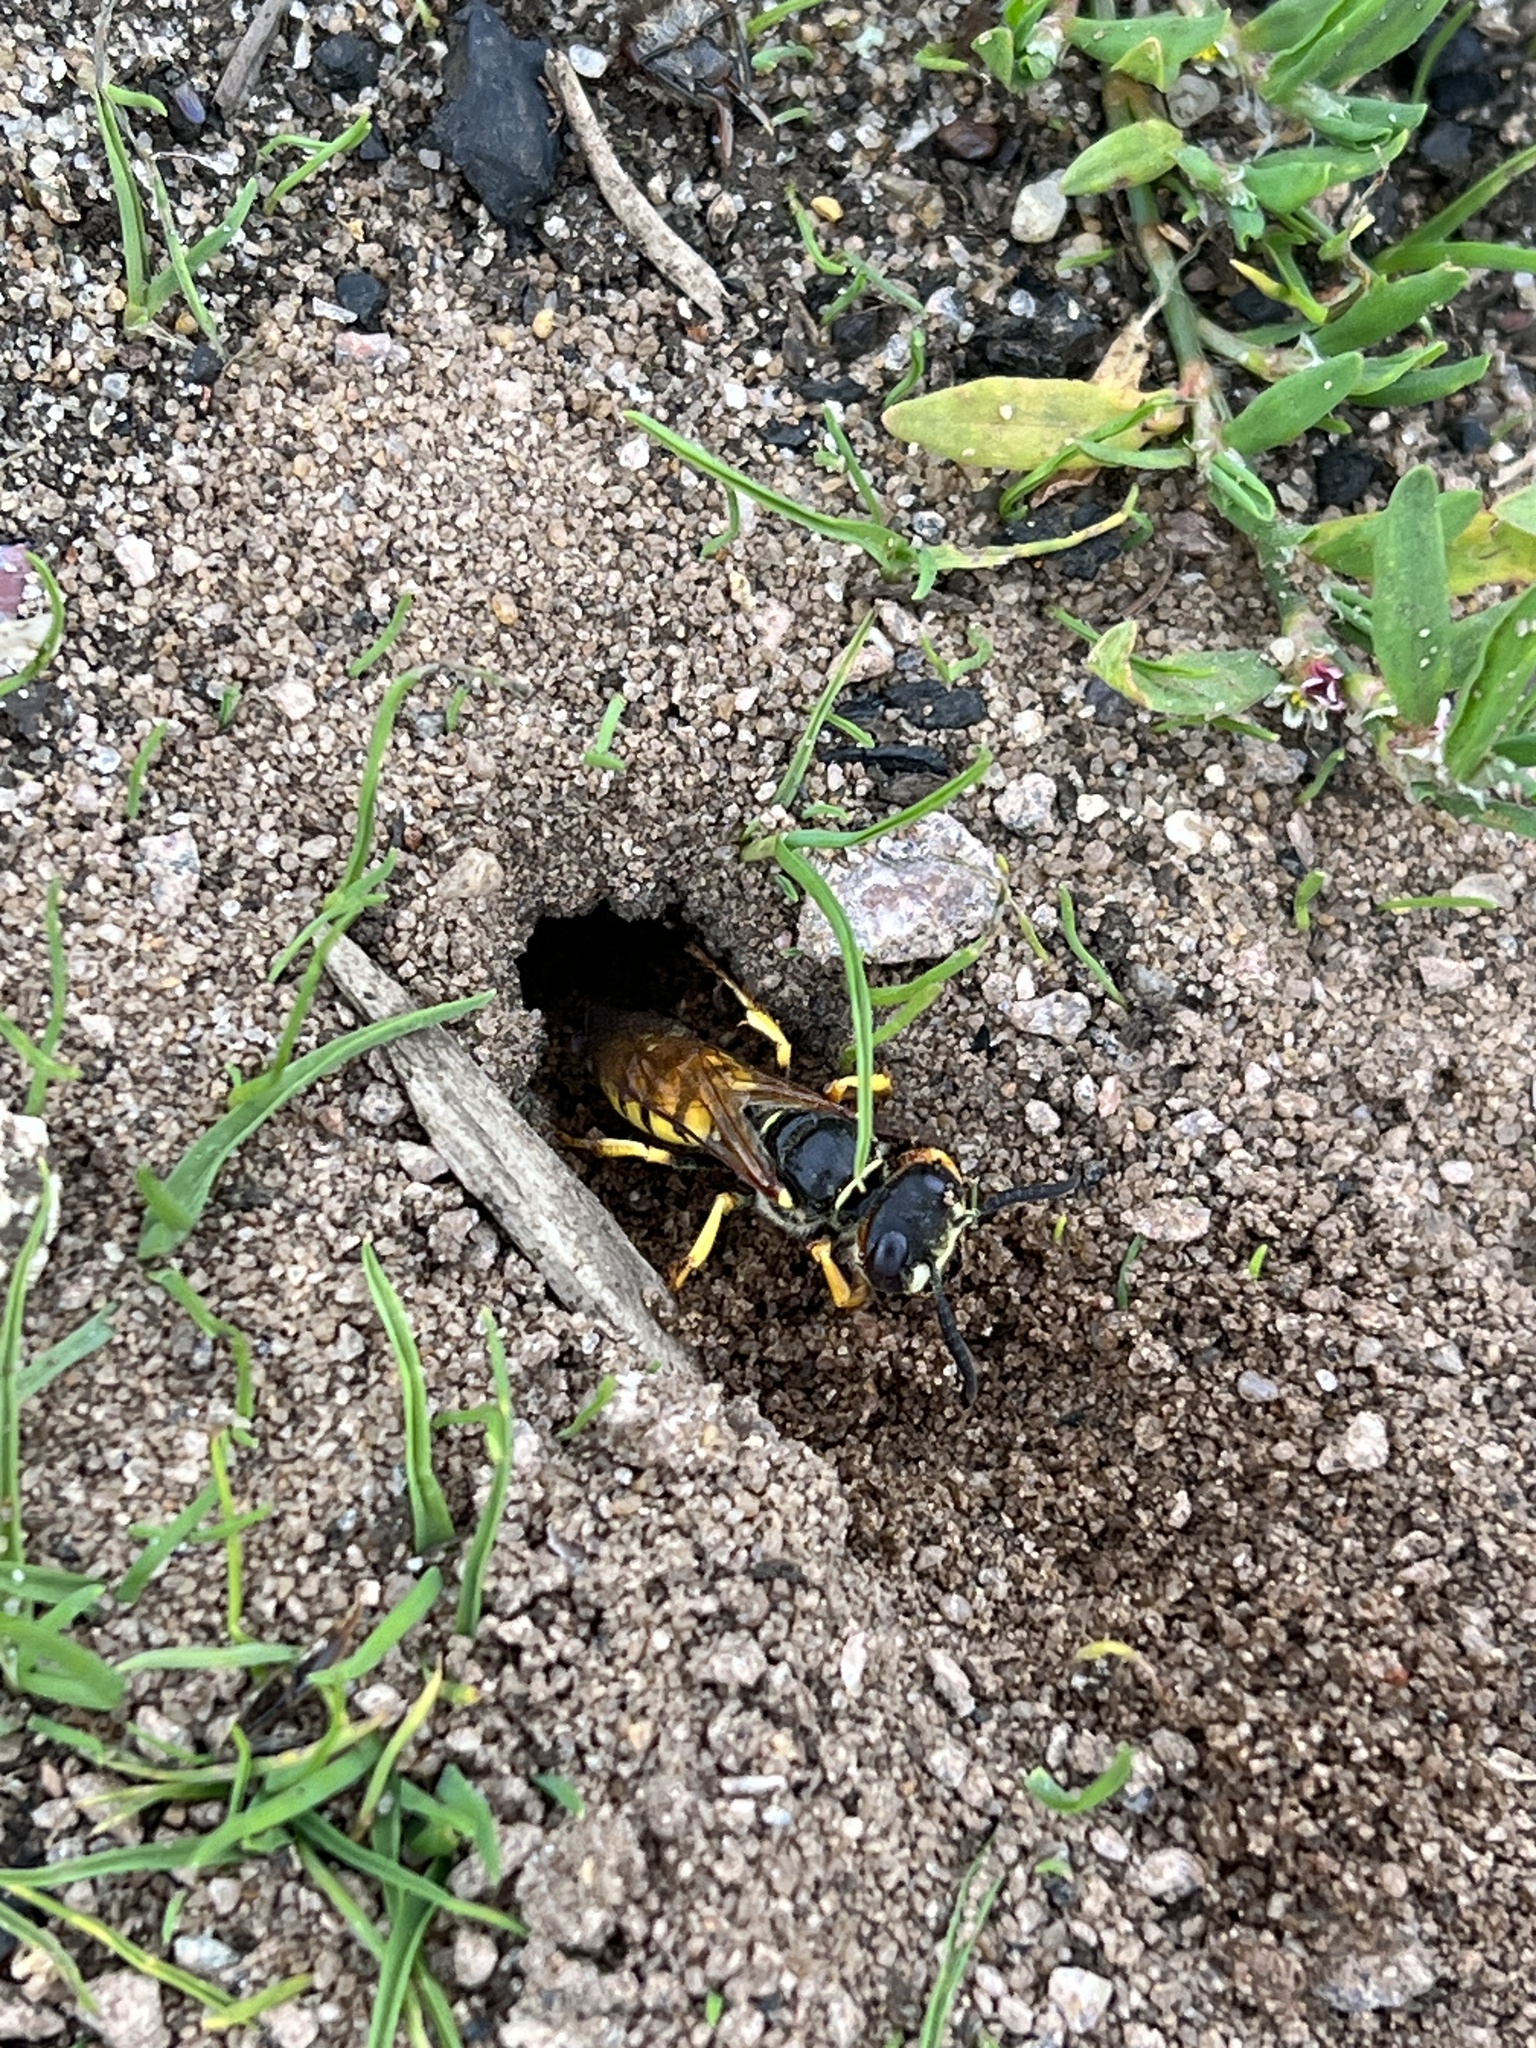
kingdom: Animalia
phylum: Arthropoda
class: Insecta
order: Hymenoptera
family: Crabronidae
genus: Philanthus
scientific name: Philanthus triangulum
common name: Bee wolf
